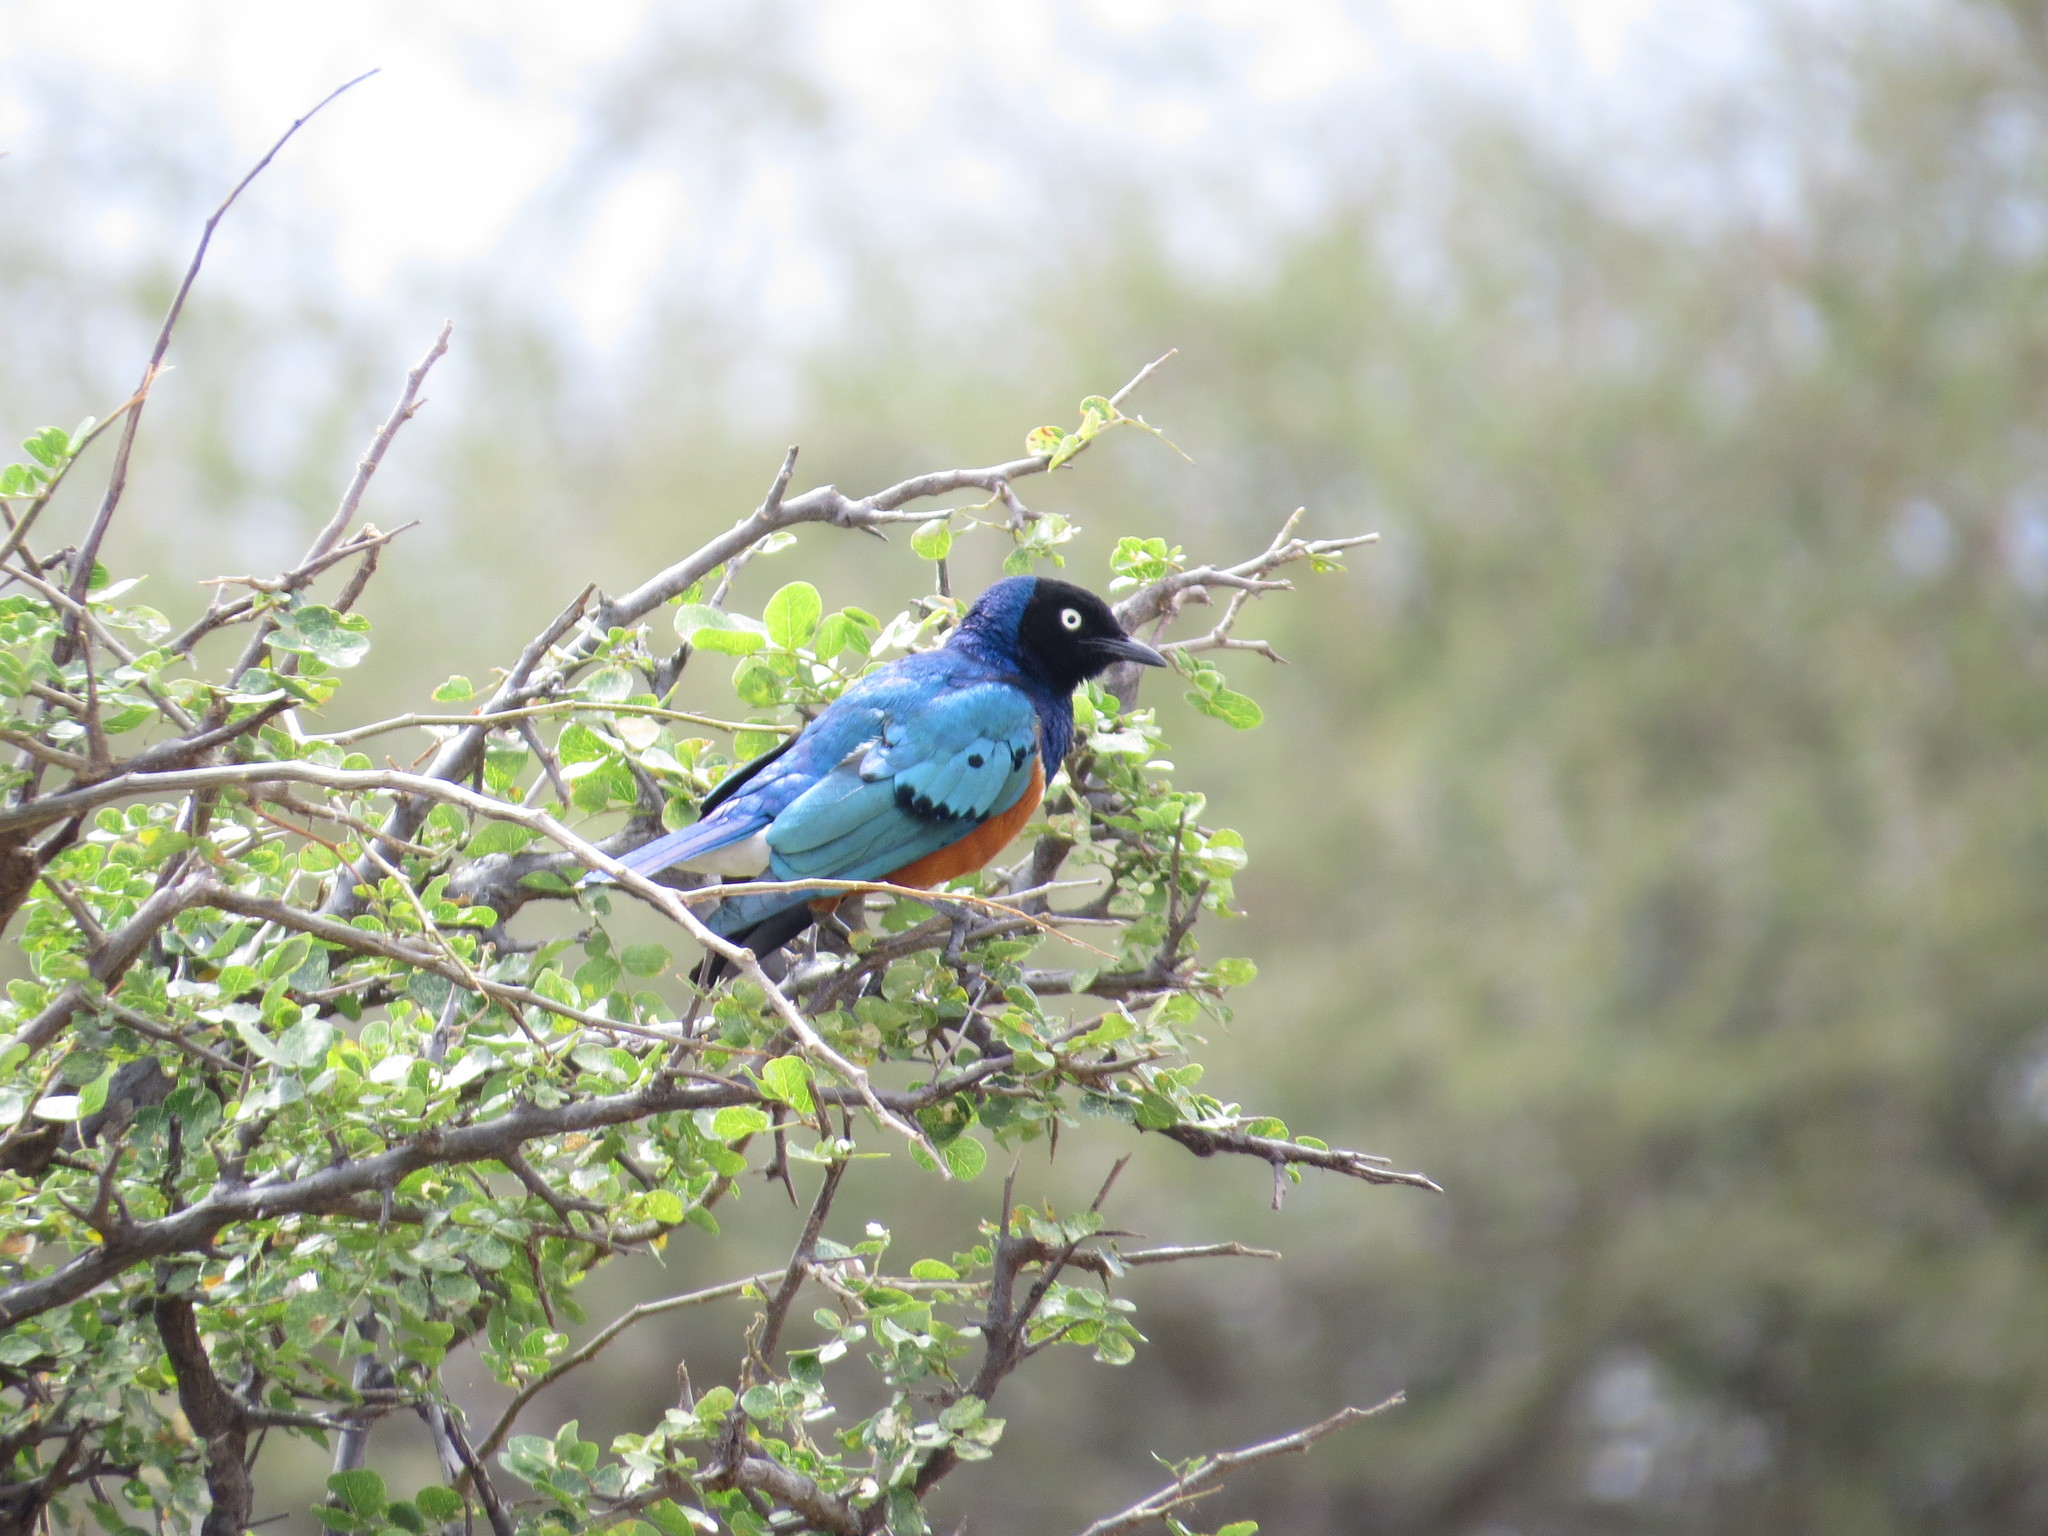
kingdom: Animalia
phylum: Chordata
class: Aves
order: Passeriformes
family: Sturnidae
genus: Lamprotornis
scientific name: Lamprotornis superbus
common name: Superb starling
